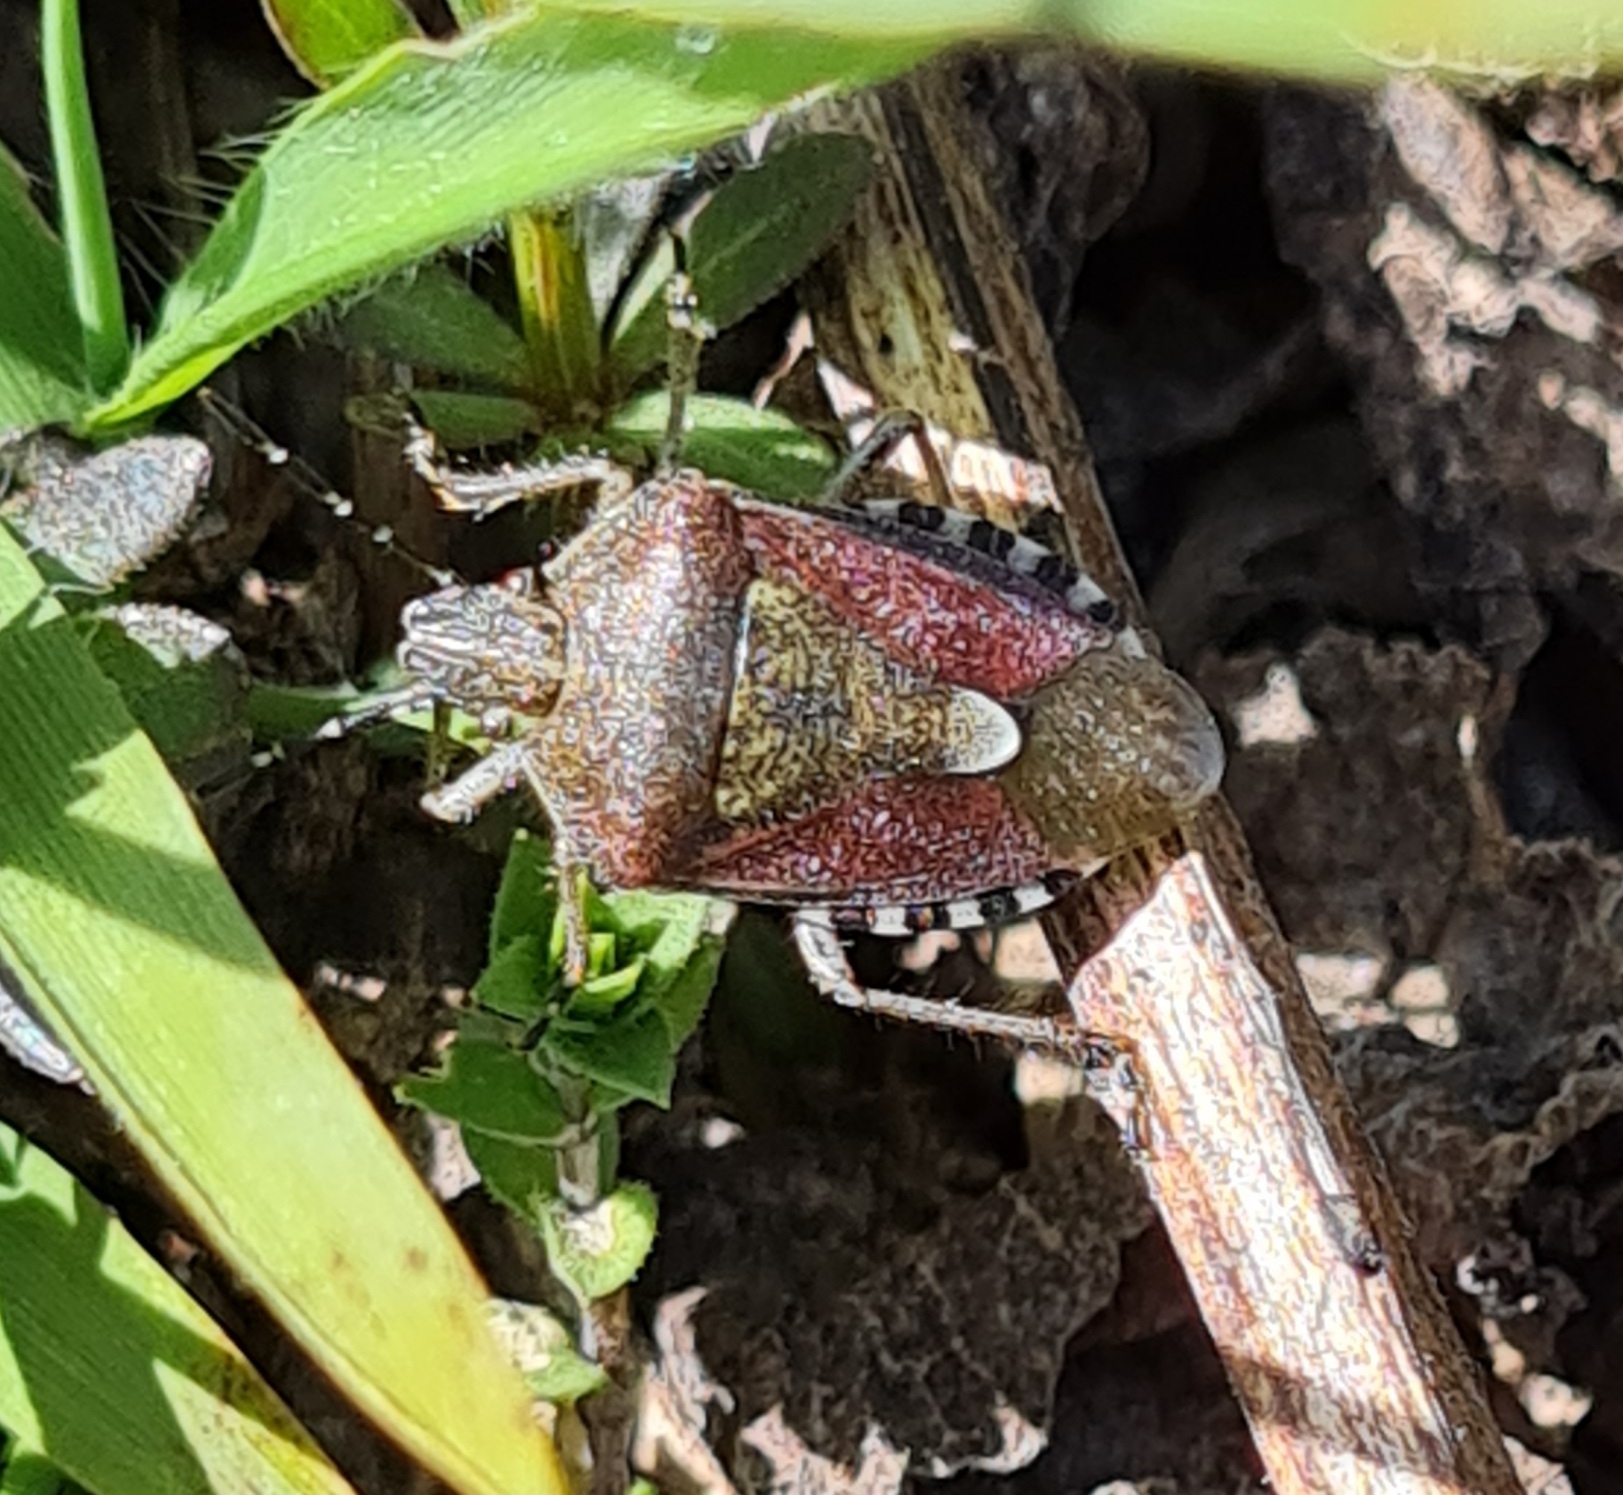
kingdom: Animalia
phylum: Arthropoda
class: Insecta
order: Hemiptera
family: Pentatomidae
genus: Dolycoris
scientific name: Dolycoris baccarum
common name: Sloe bug
